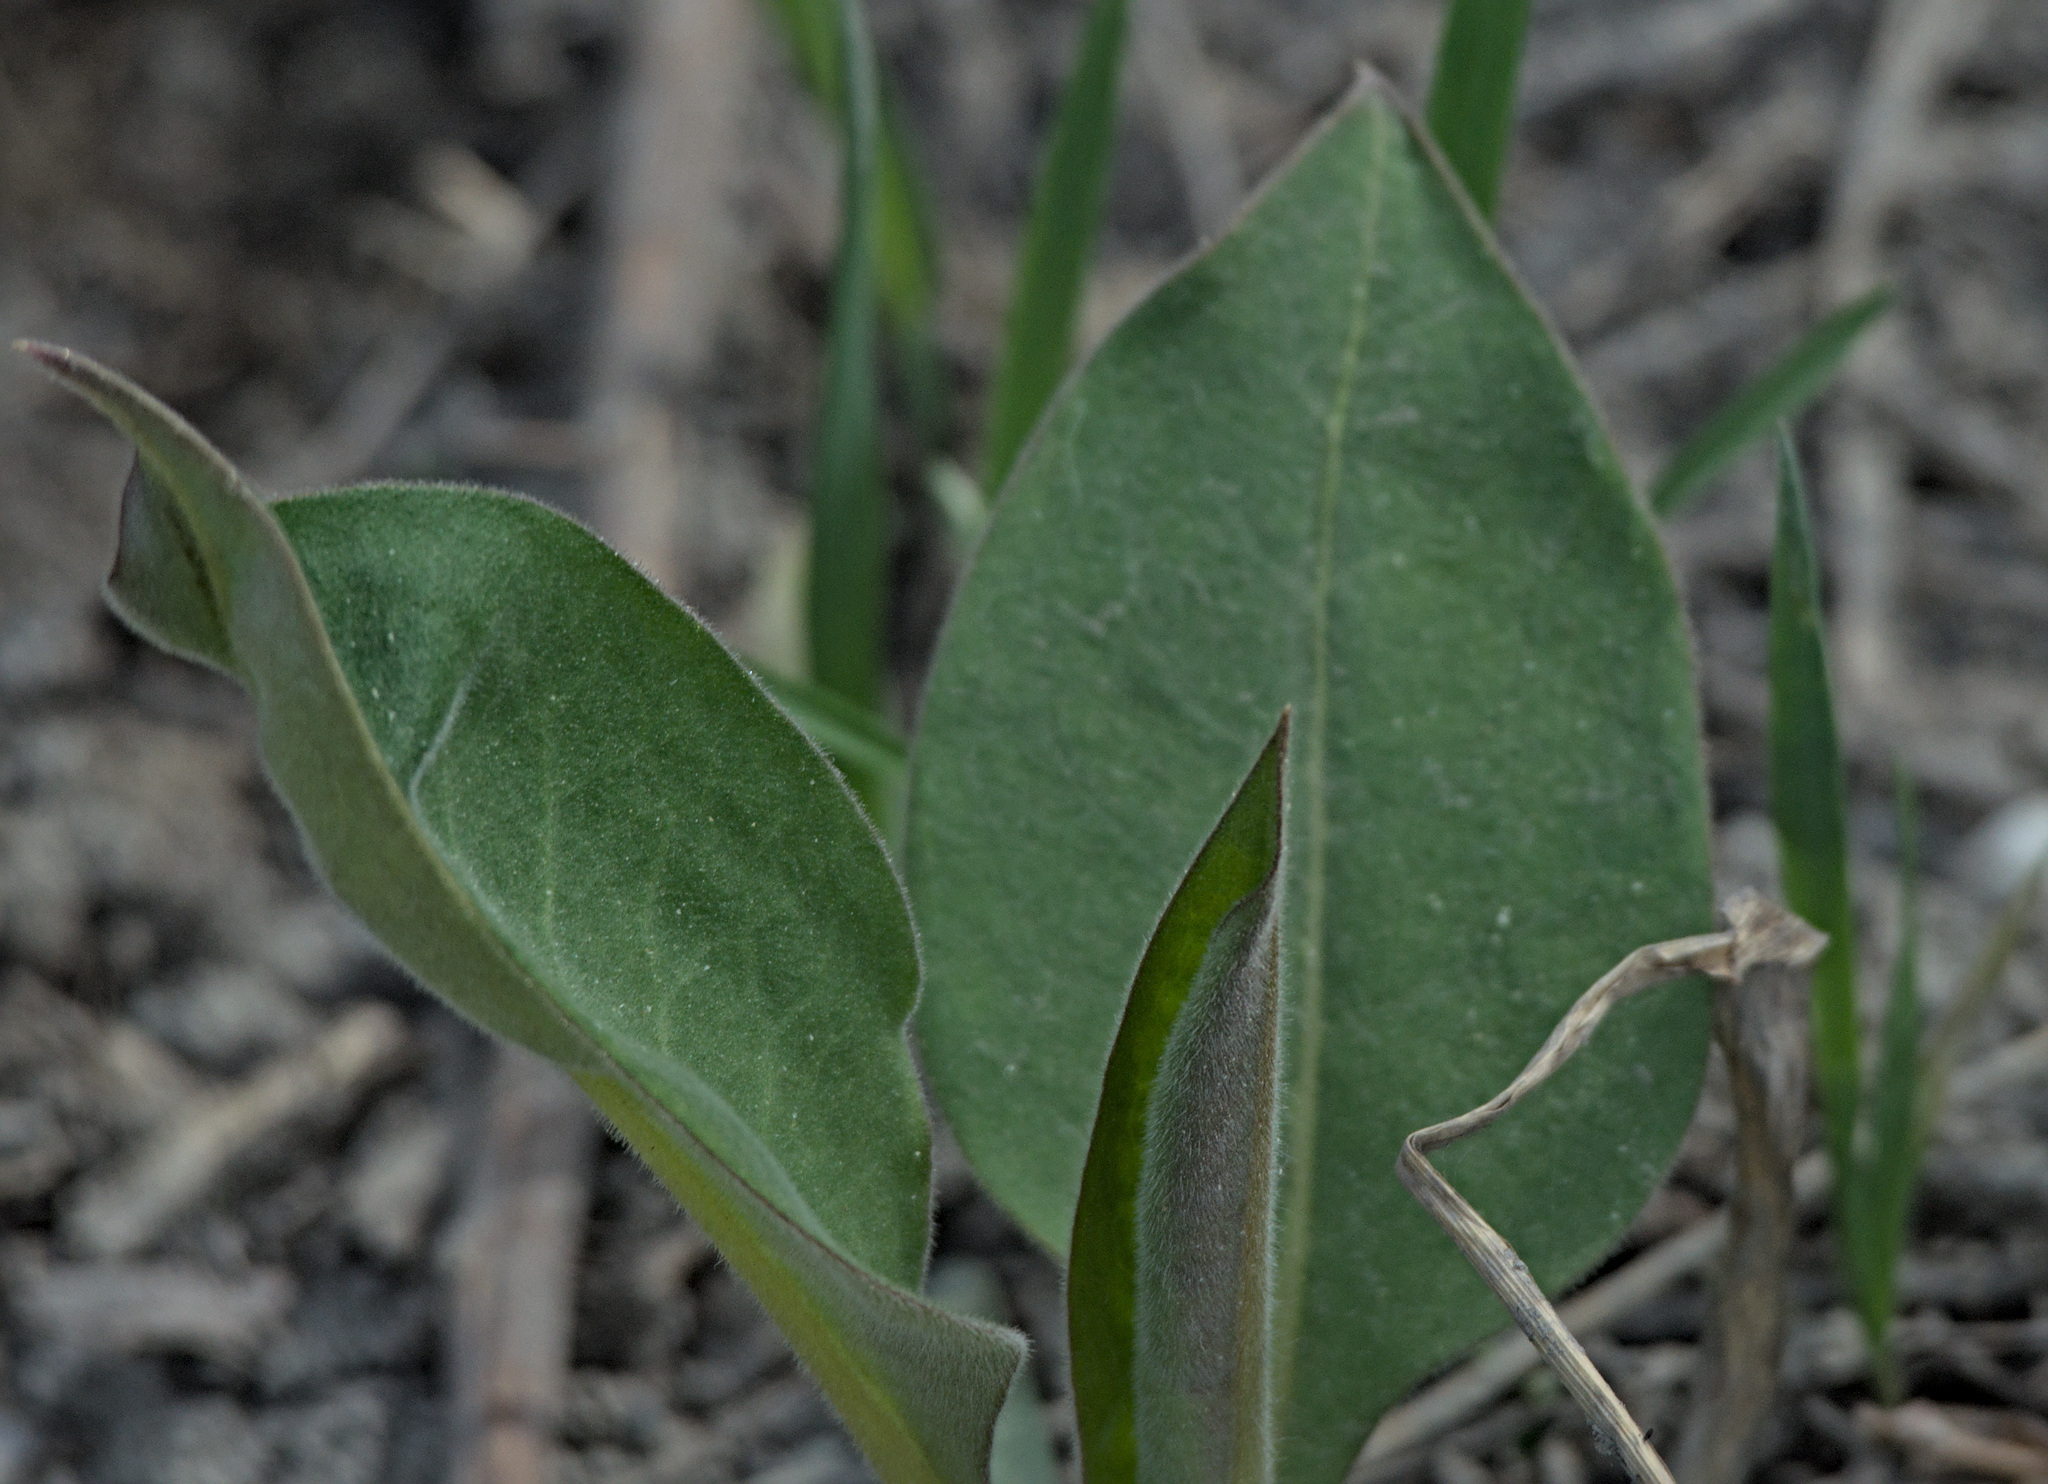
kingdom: Plantae
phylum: Tracheophyta
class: Magnoliopsida
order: Boraginales
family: Boraginaceae
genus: Pulmonaria
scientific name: Pulmonaria mollis
